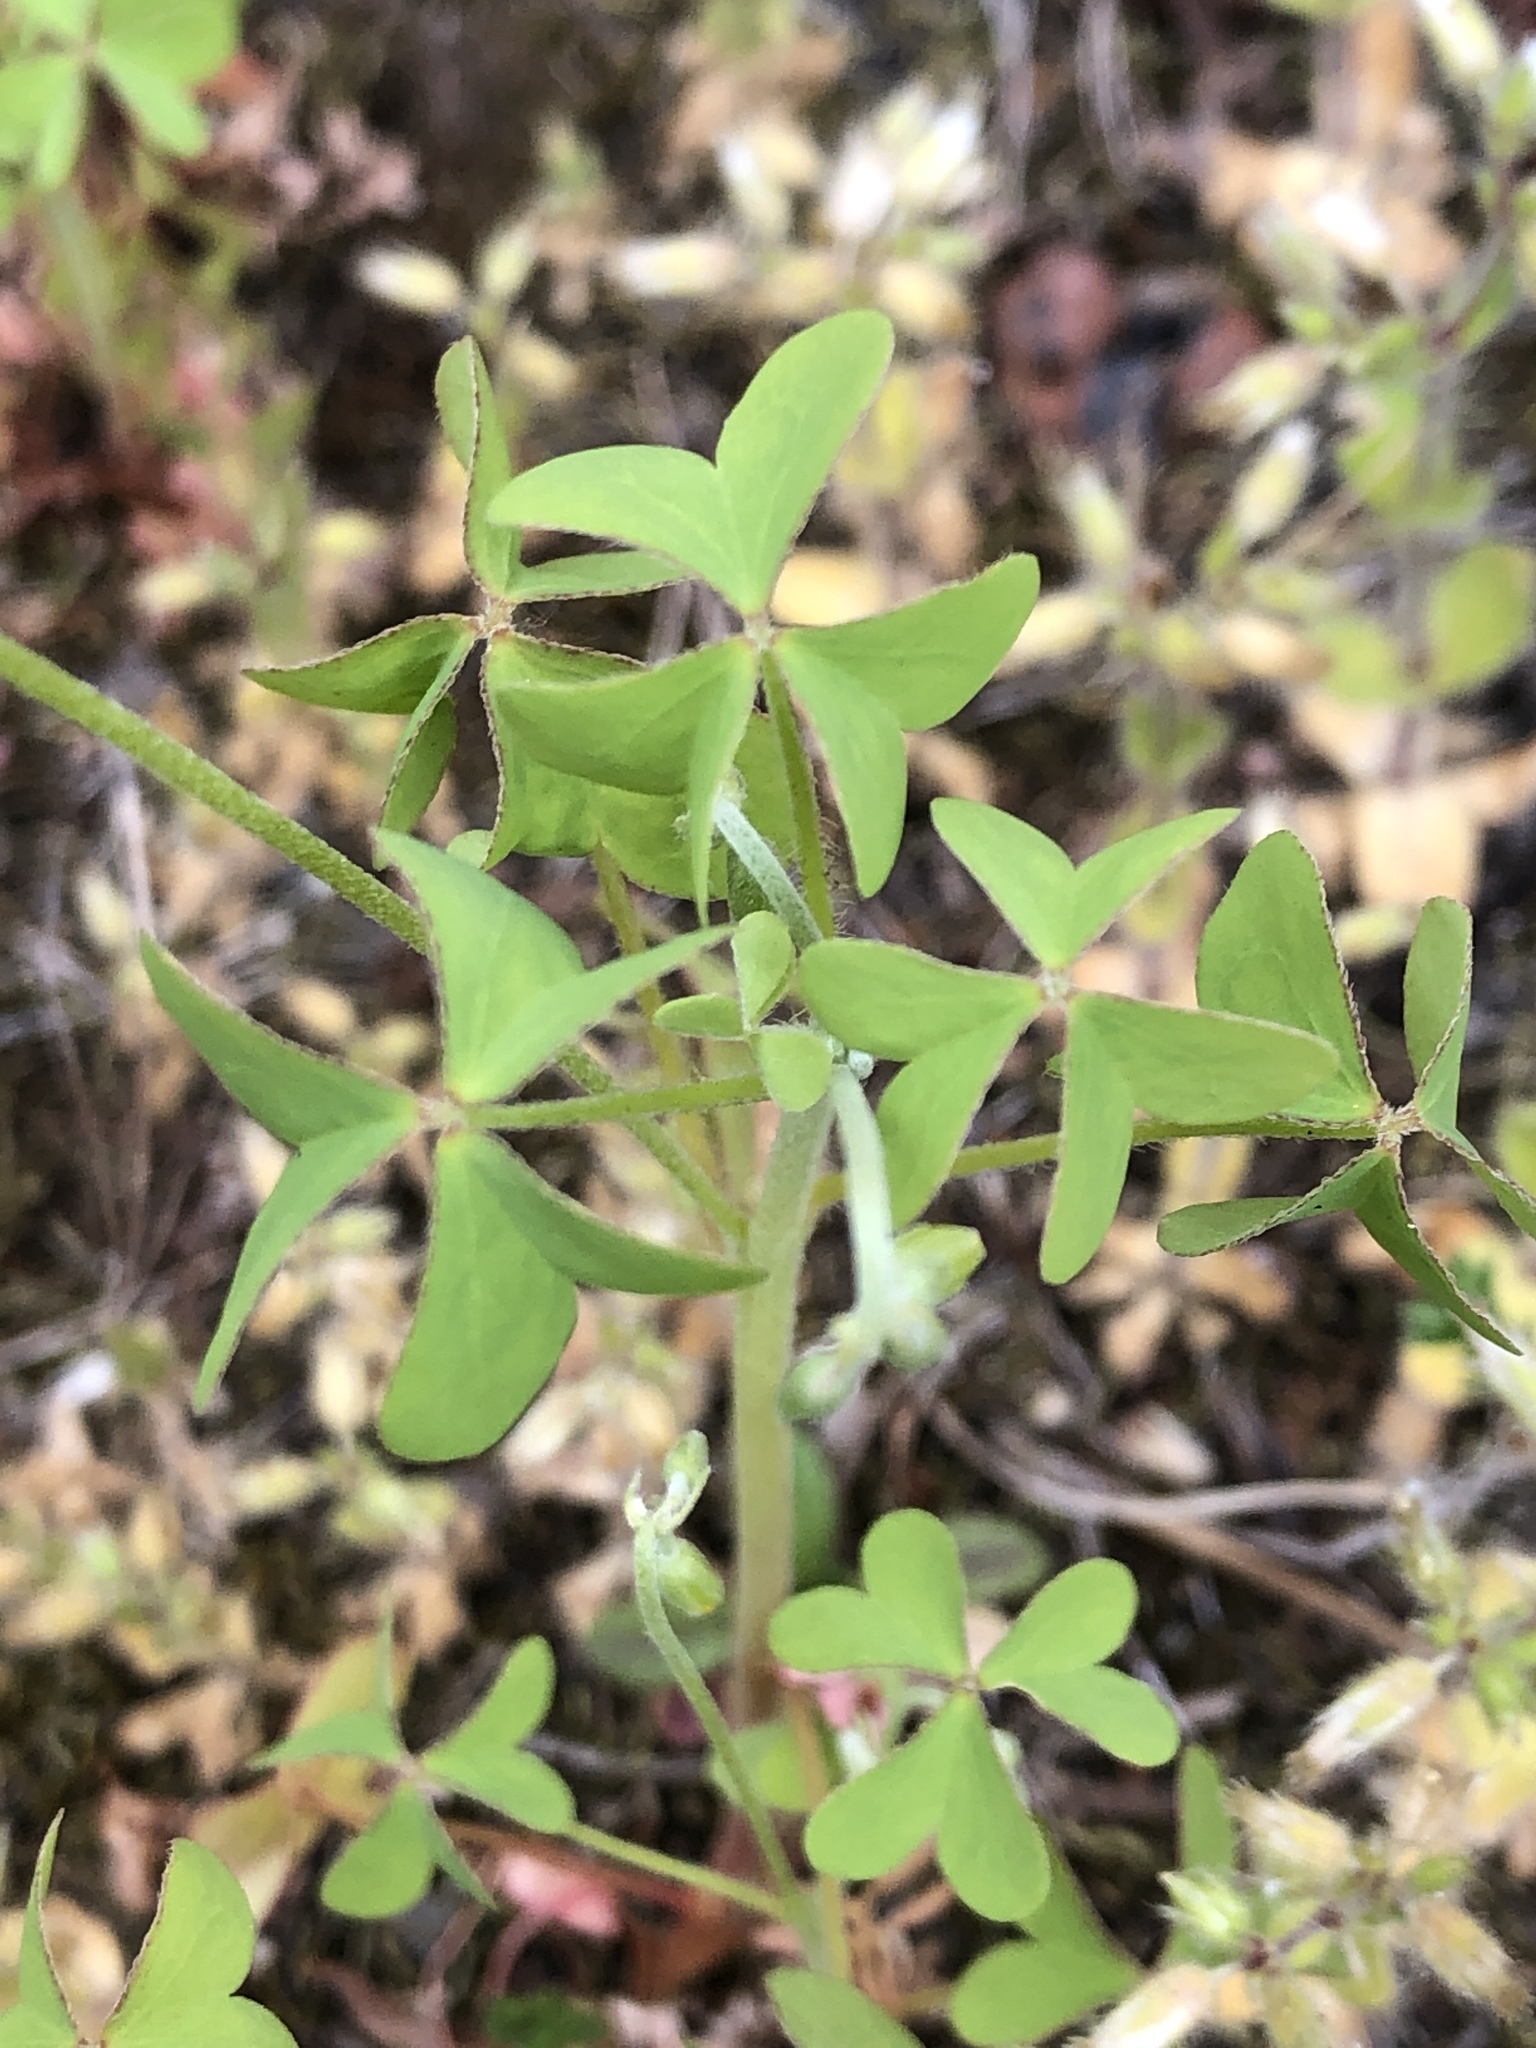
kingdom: Plantae
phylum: Tracheophyta
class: Magnoliopsida
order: Oxalidales
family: Oxalidaceae
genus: Oxalis
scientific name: Oxalis stricta
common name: Upright yellow-sorrel
